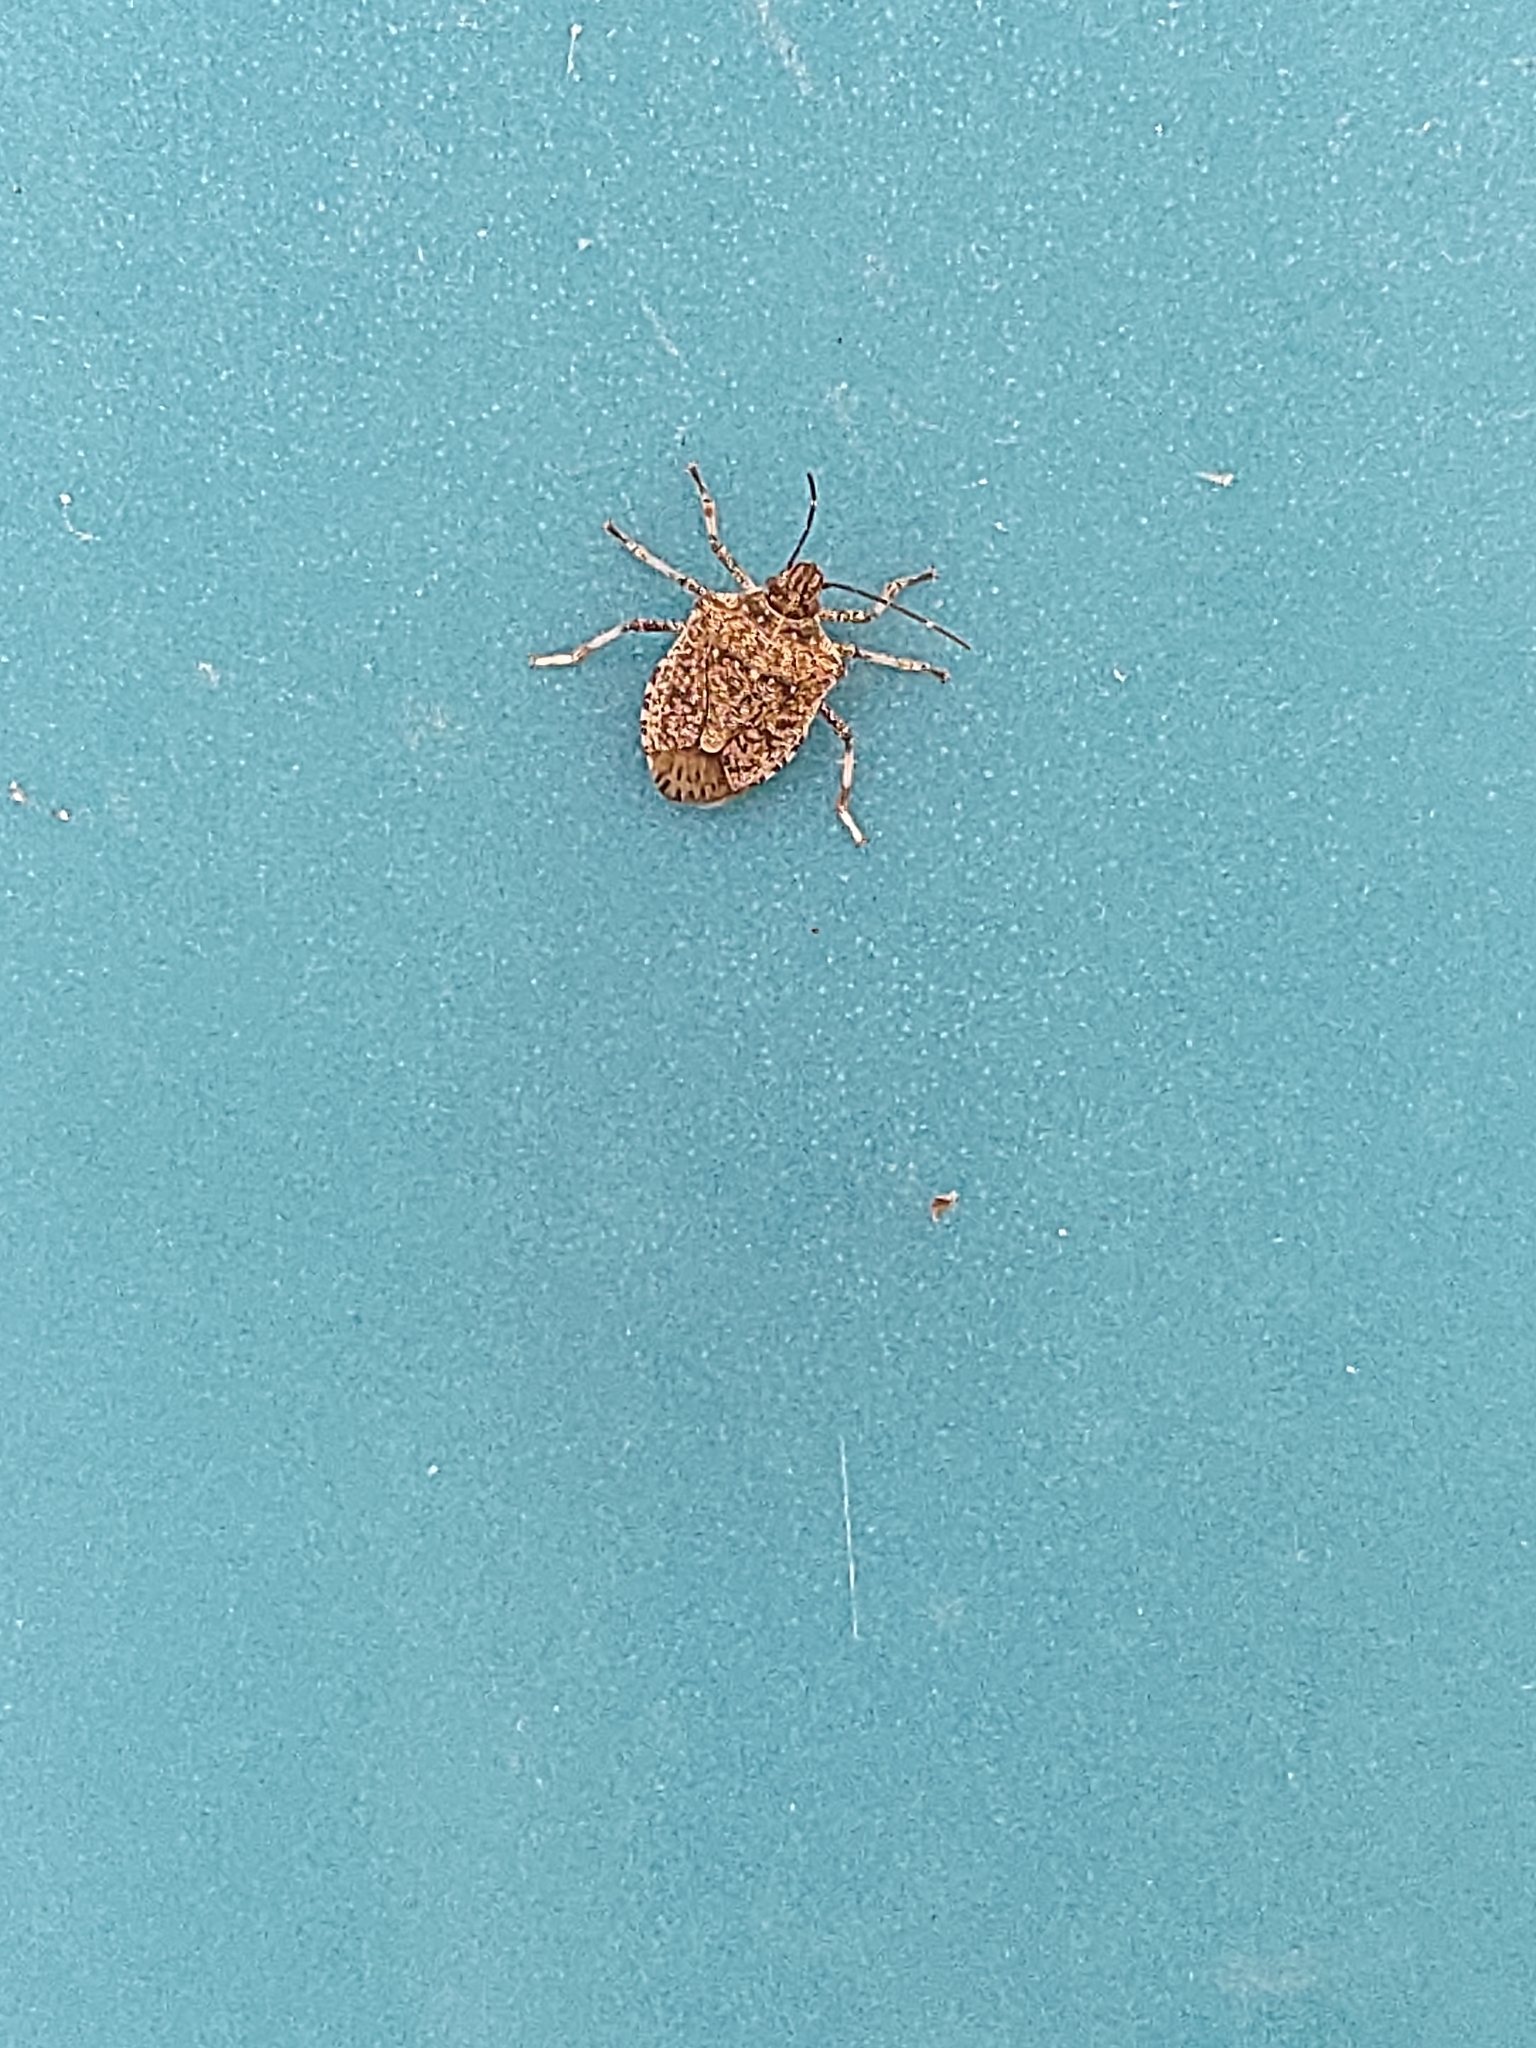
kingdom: Animalia
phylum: Arthropoda
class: Insecta
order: Hemiptera
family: Pentatomidae
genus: Halyomorpha
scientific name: Halyomorpha halys
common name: Brown marmorated stink bug
